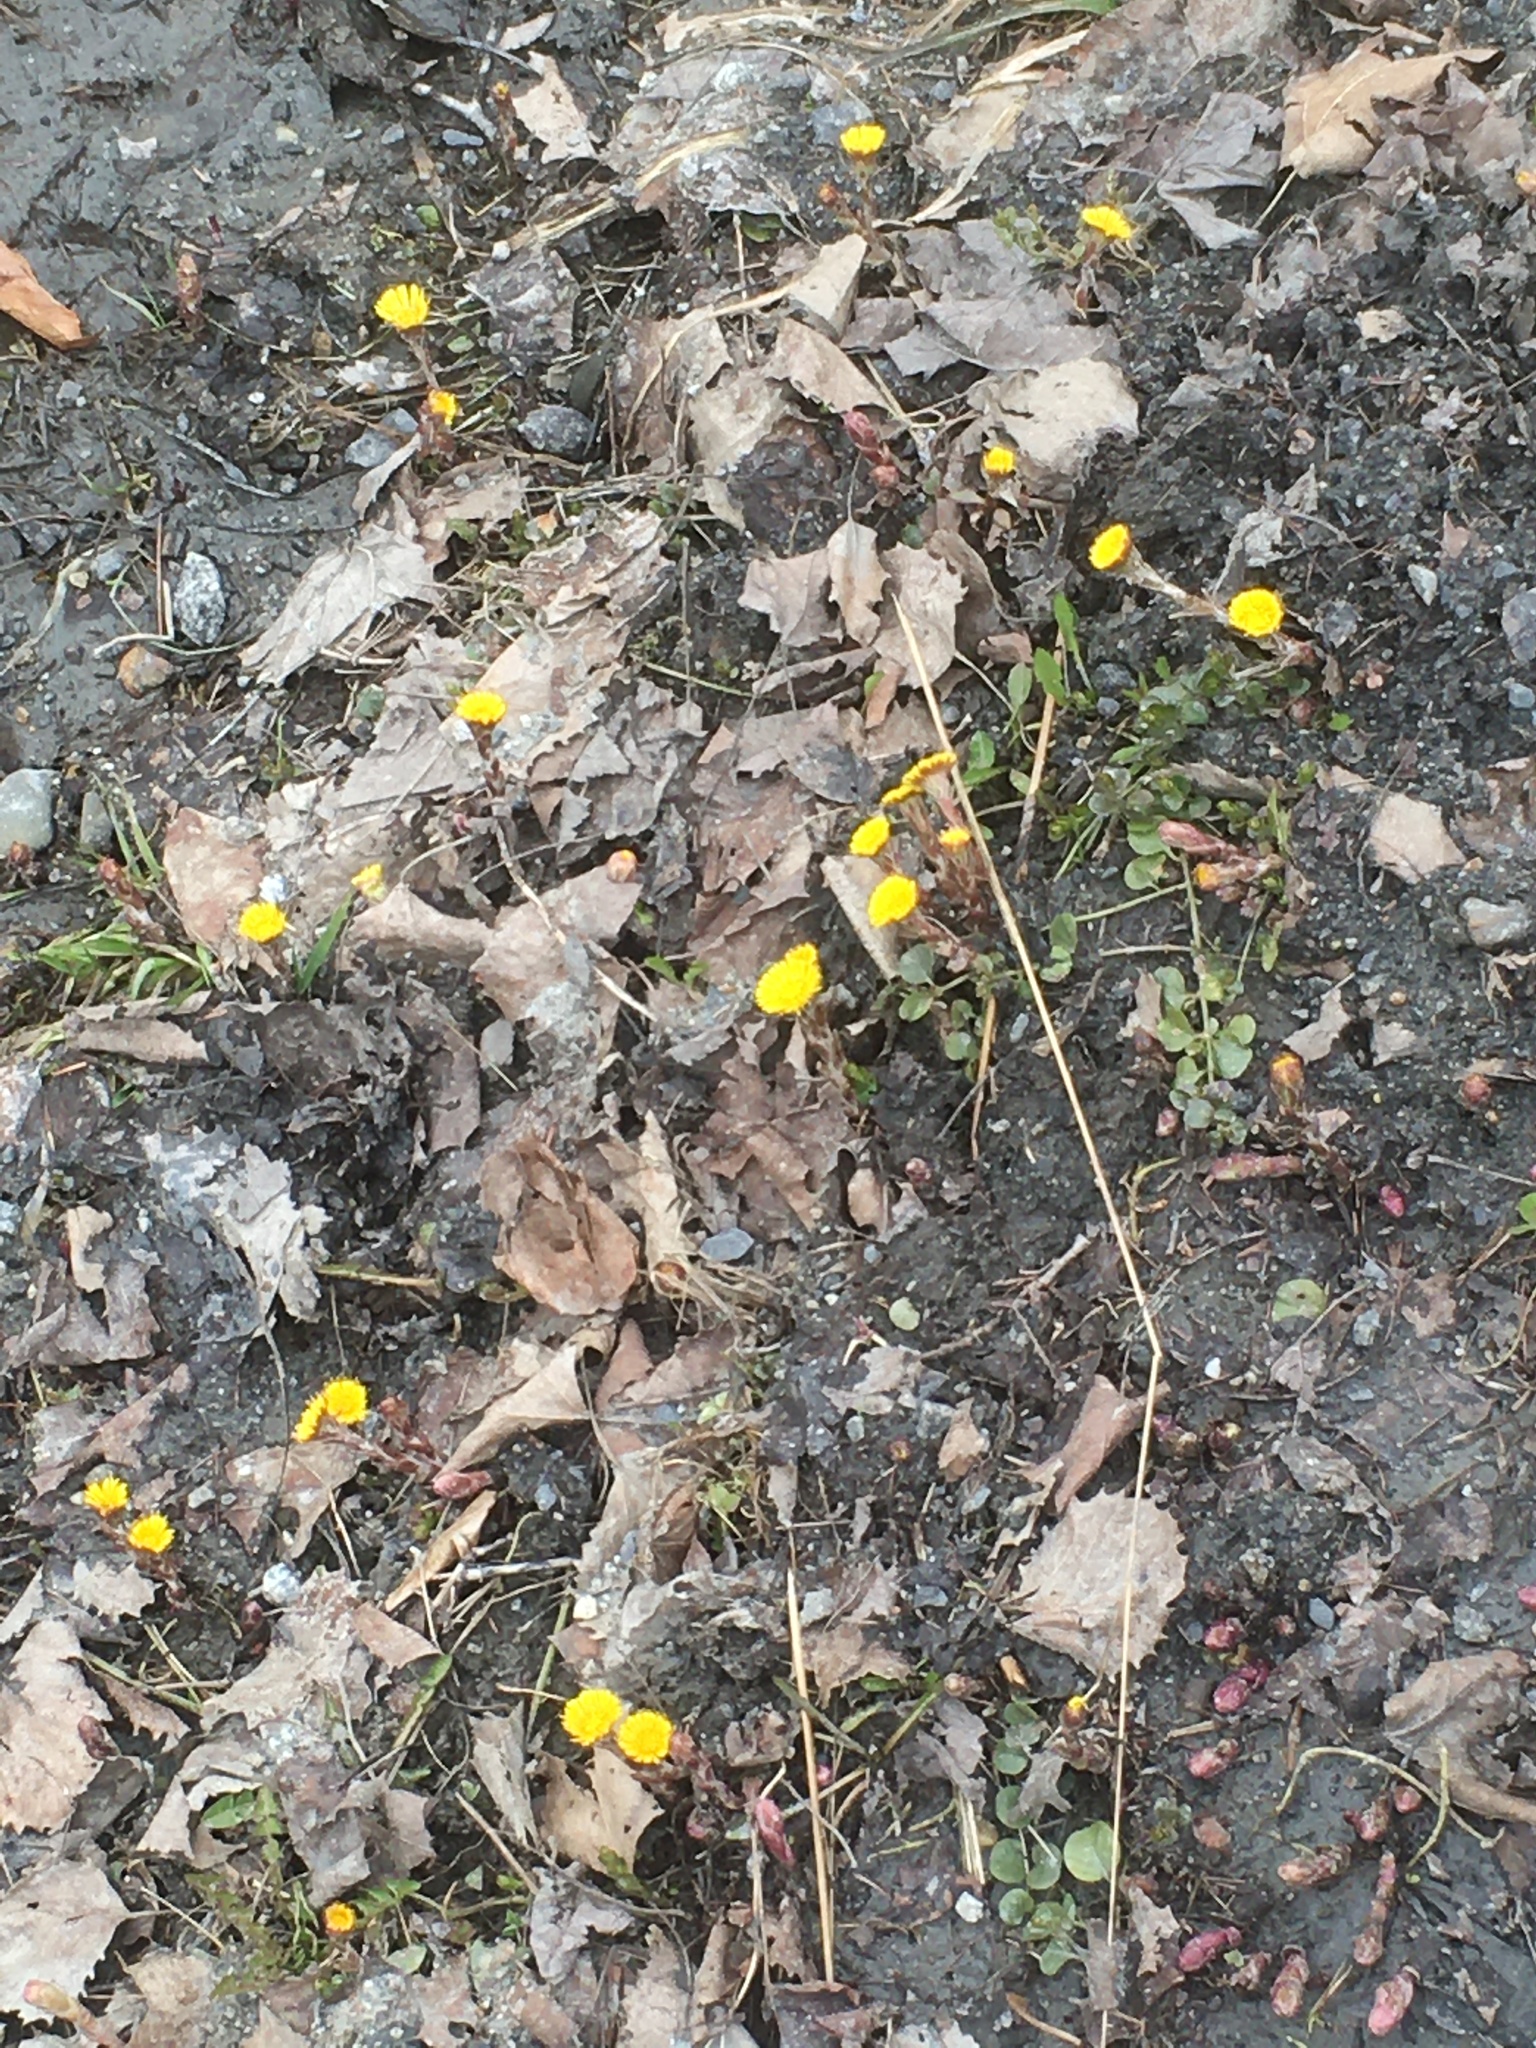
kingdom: Plantae
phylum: Tracheophyta
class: Magnoliopsida
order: Asterales
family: Asteraceae
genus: Tussilago
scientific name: Tussilago farfara
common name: Coltsfoot
